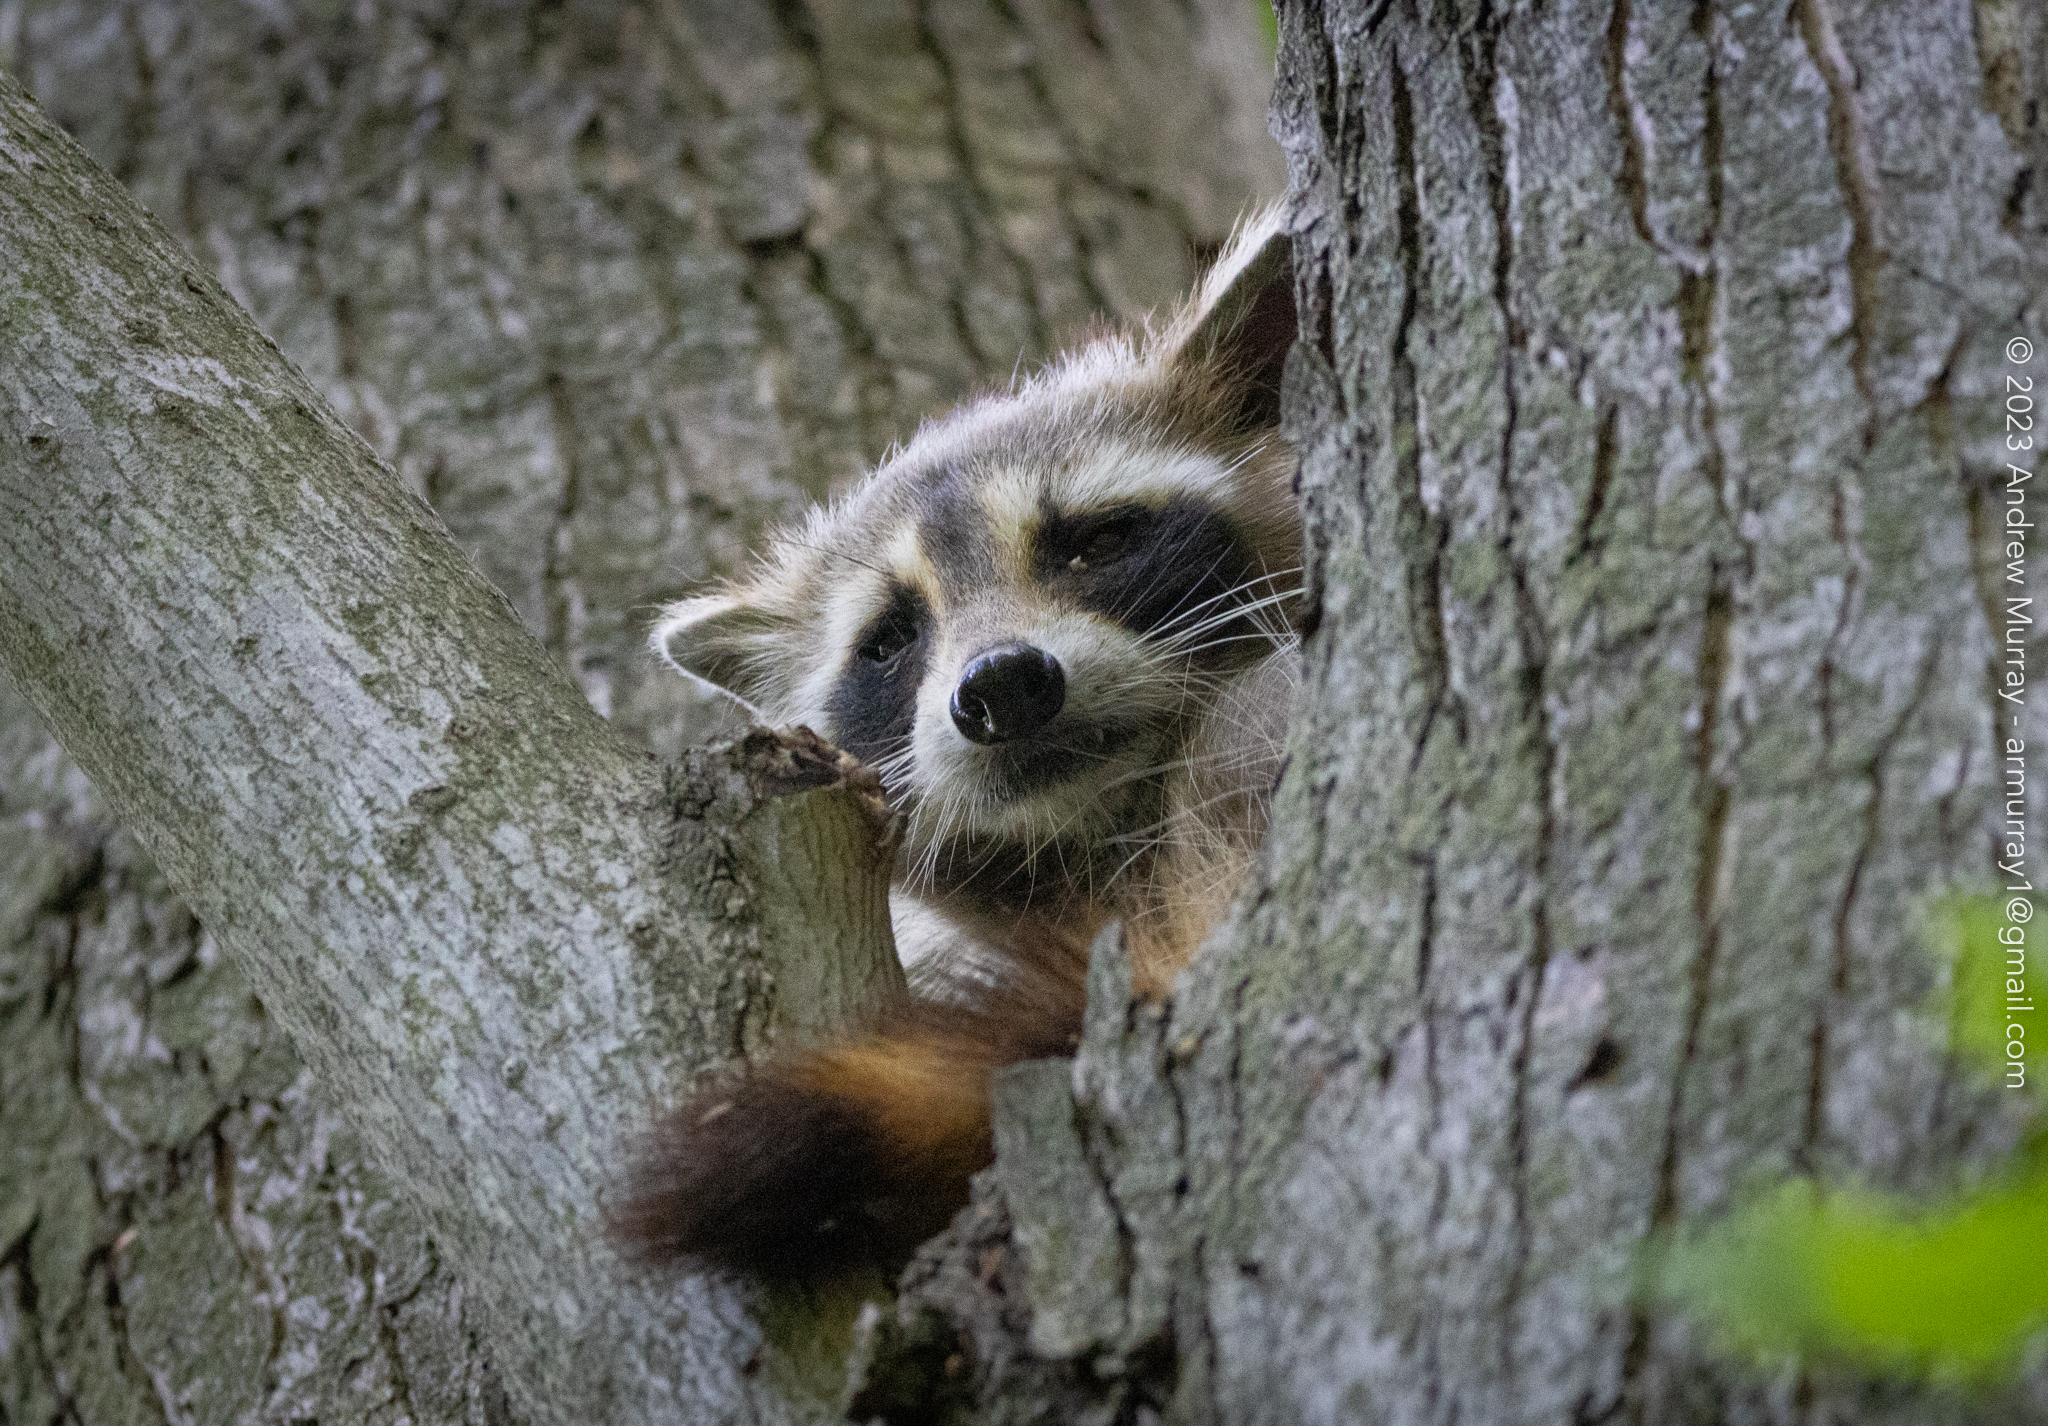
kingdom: Animalia
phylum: Chordata
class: Mammalia
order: Carnivora
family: Procyonidae
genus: Procyon
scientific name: Procyon lotor
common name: Raccoon
